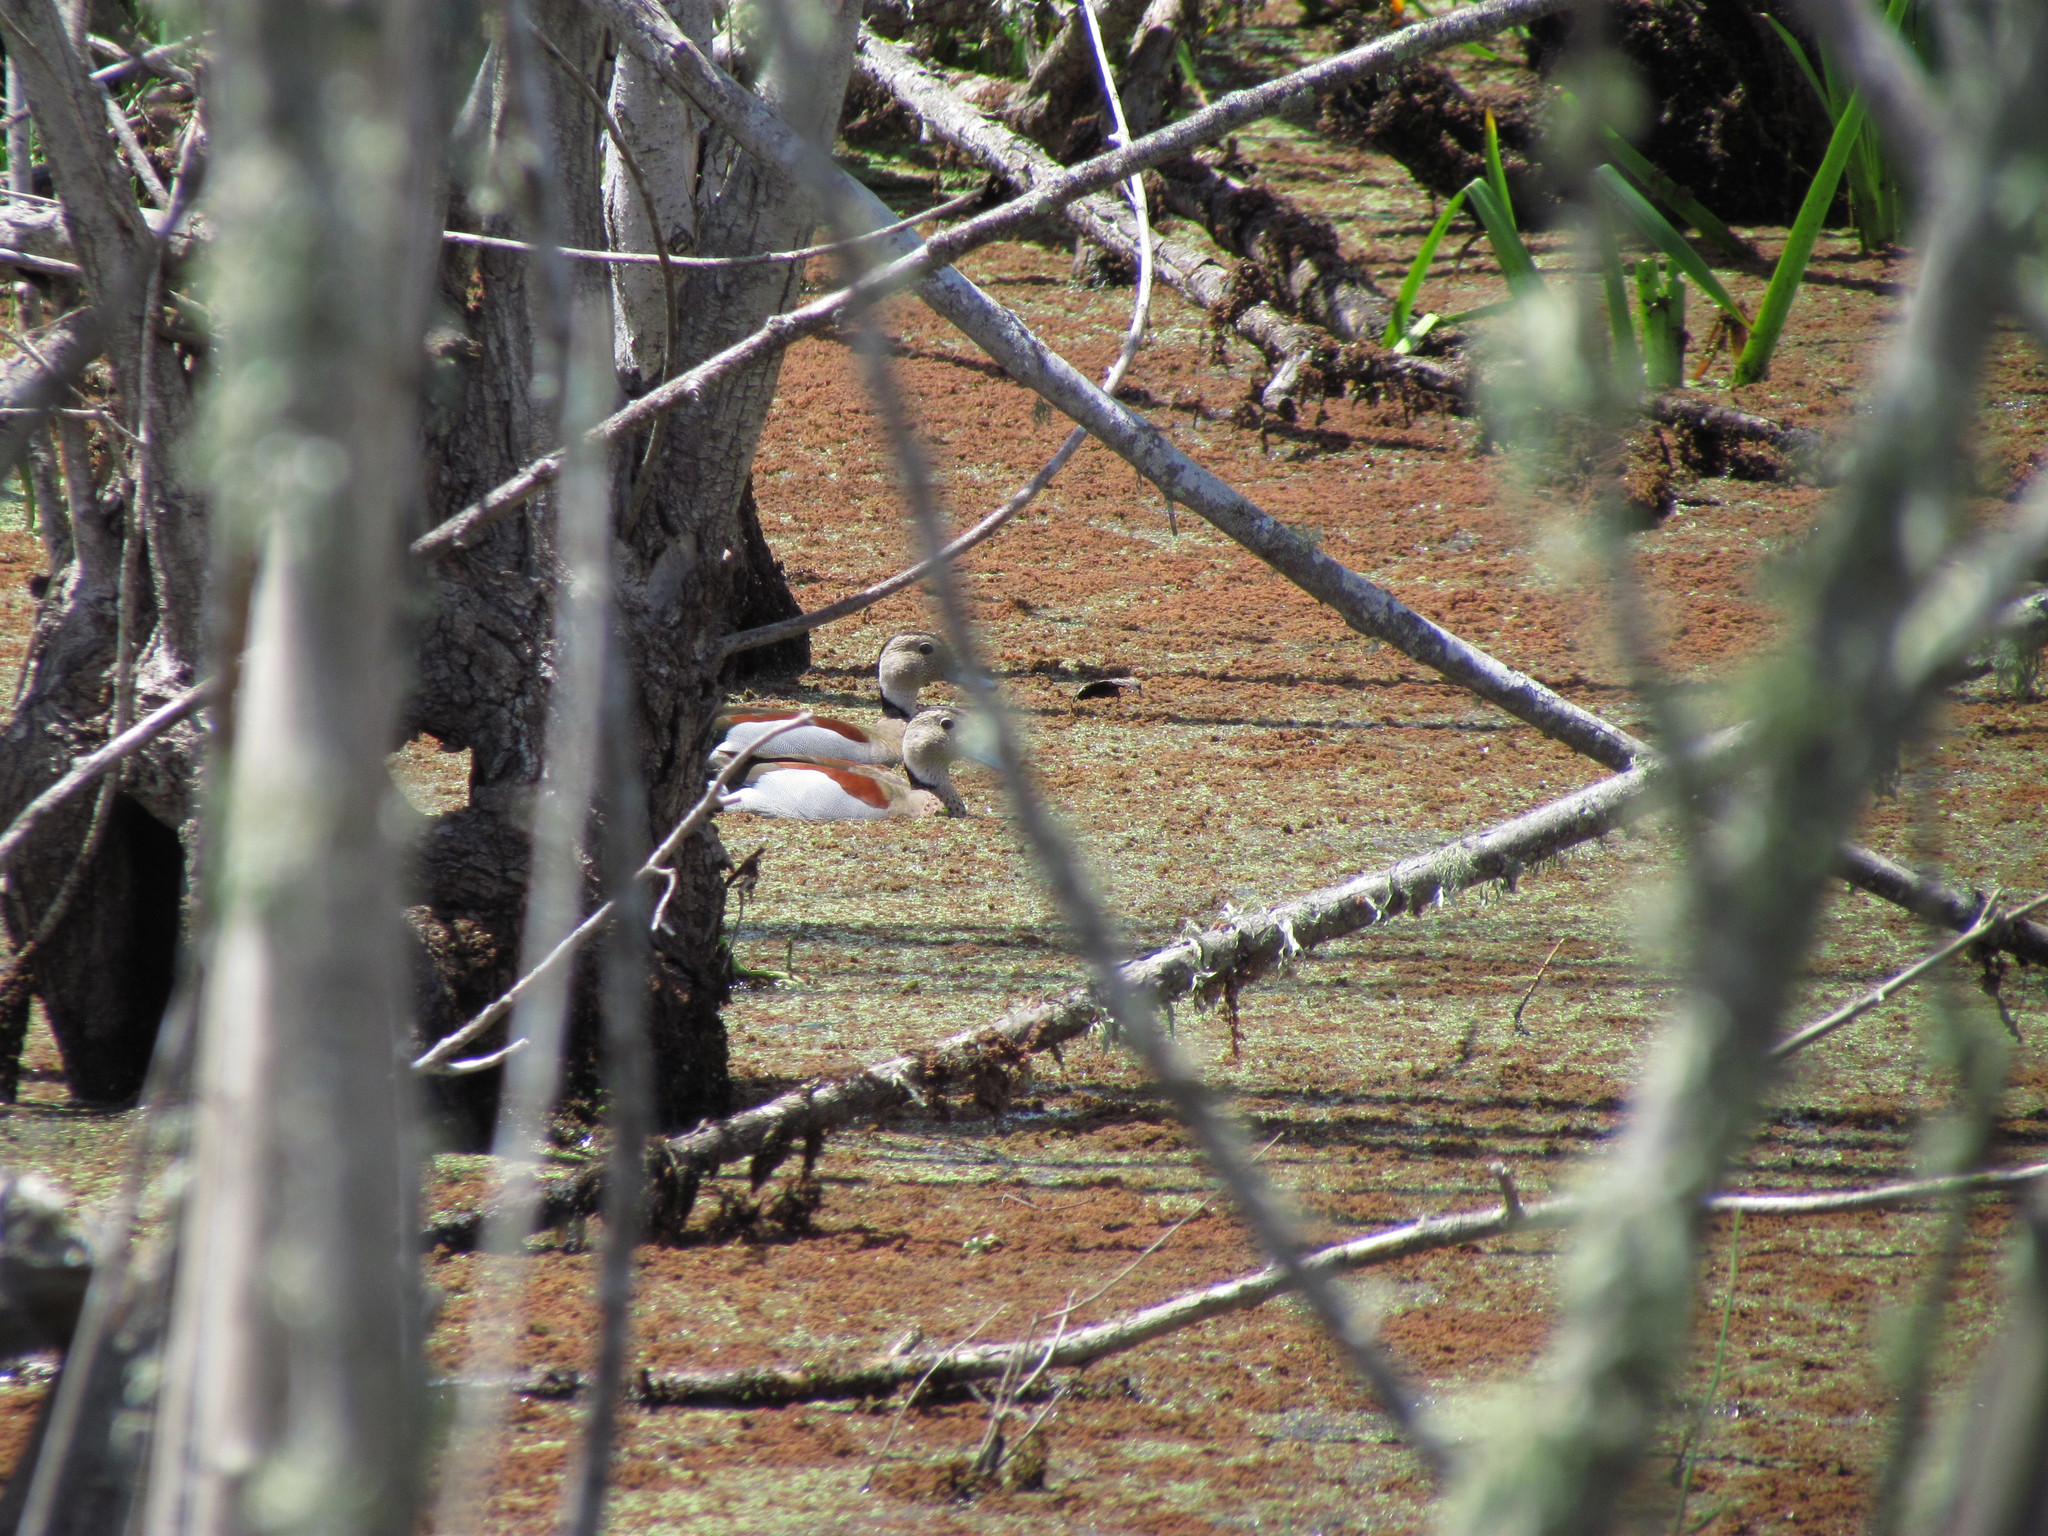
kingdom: Animalia
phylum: Chordata
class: Aves
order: Anseriformes
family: Anatidae
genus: Callonetta
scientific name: Callonetta leucophrys
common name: Ringed teal
